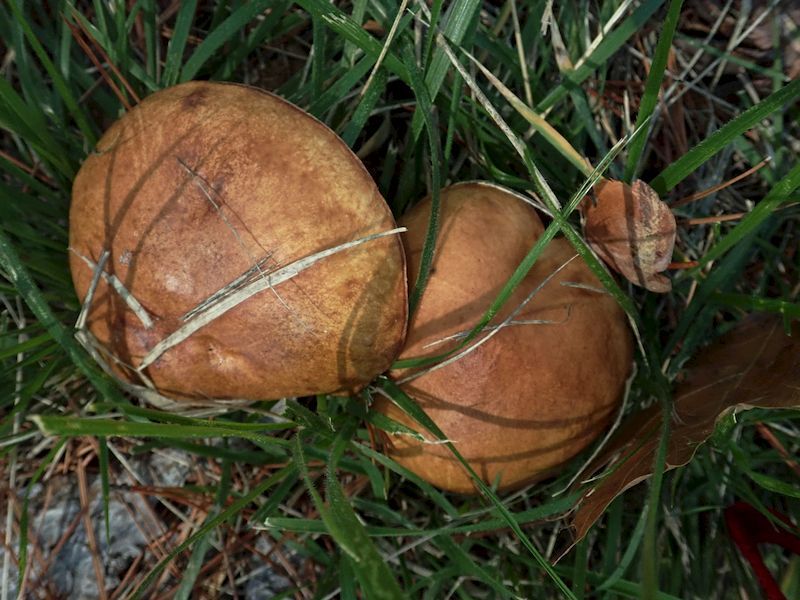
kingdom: Fungi
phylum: Basidiomycota
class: Agaricomycetes
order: Boletales
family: Suillaceae
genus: Suillus
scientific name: Suillus luteus
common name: Slippery jack
